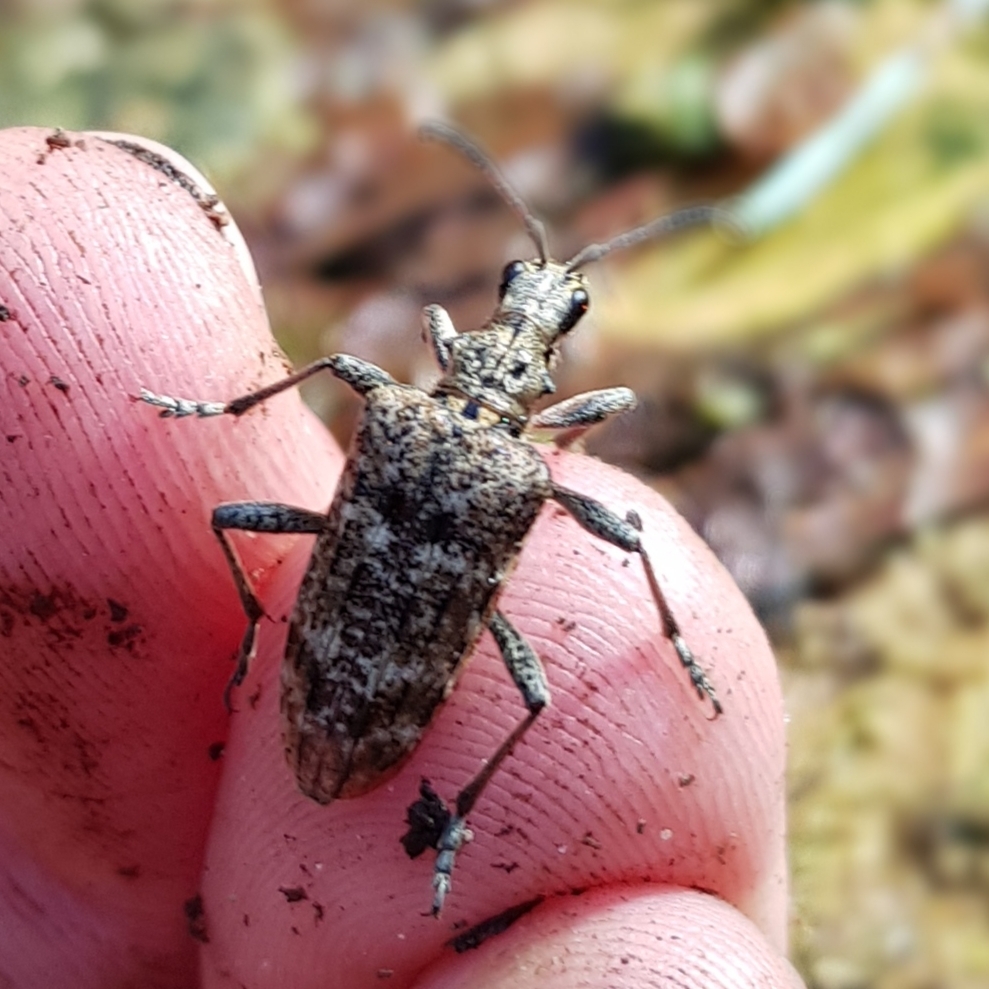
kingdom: Animalia
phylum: Arthropoda
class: Insecta
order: Coleoptera
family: Cerambycidae
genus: Rhagium
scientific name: Rhagium inquisitor
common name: Ribbed pine borer
